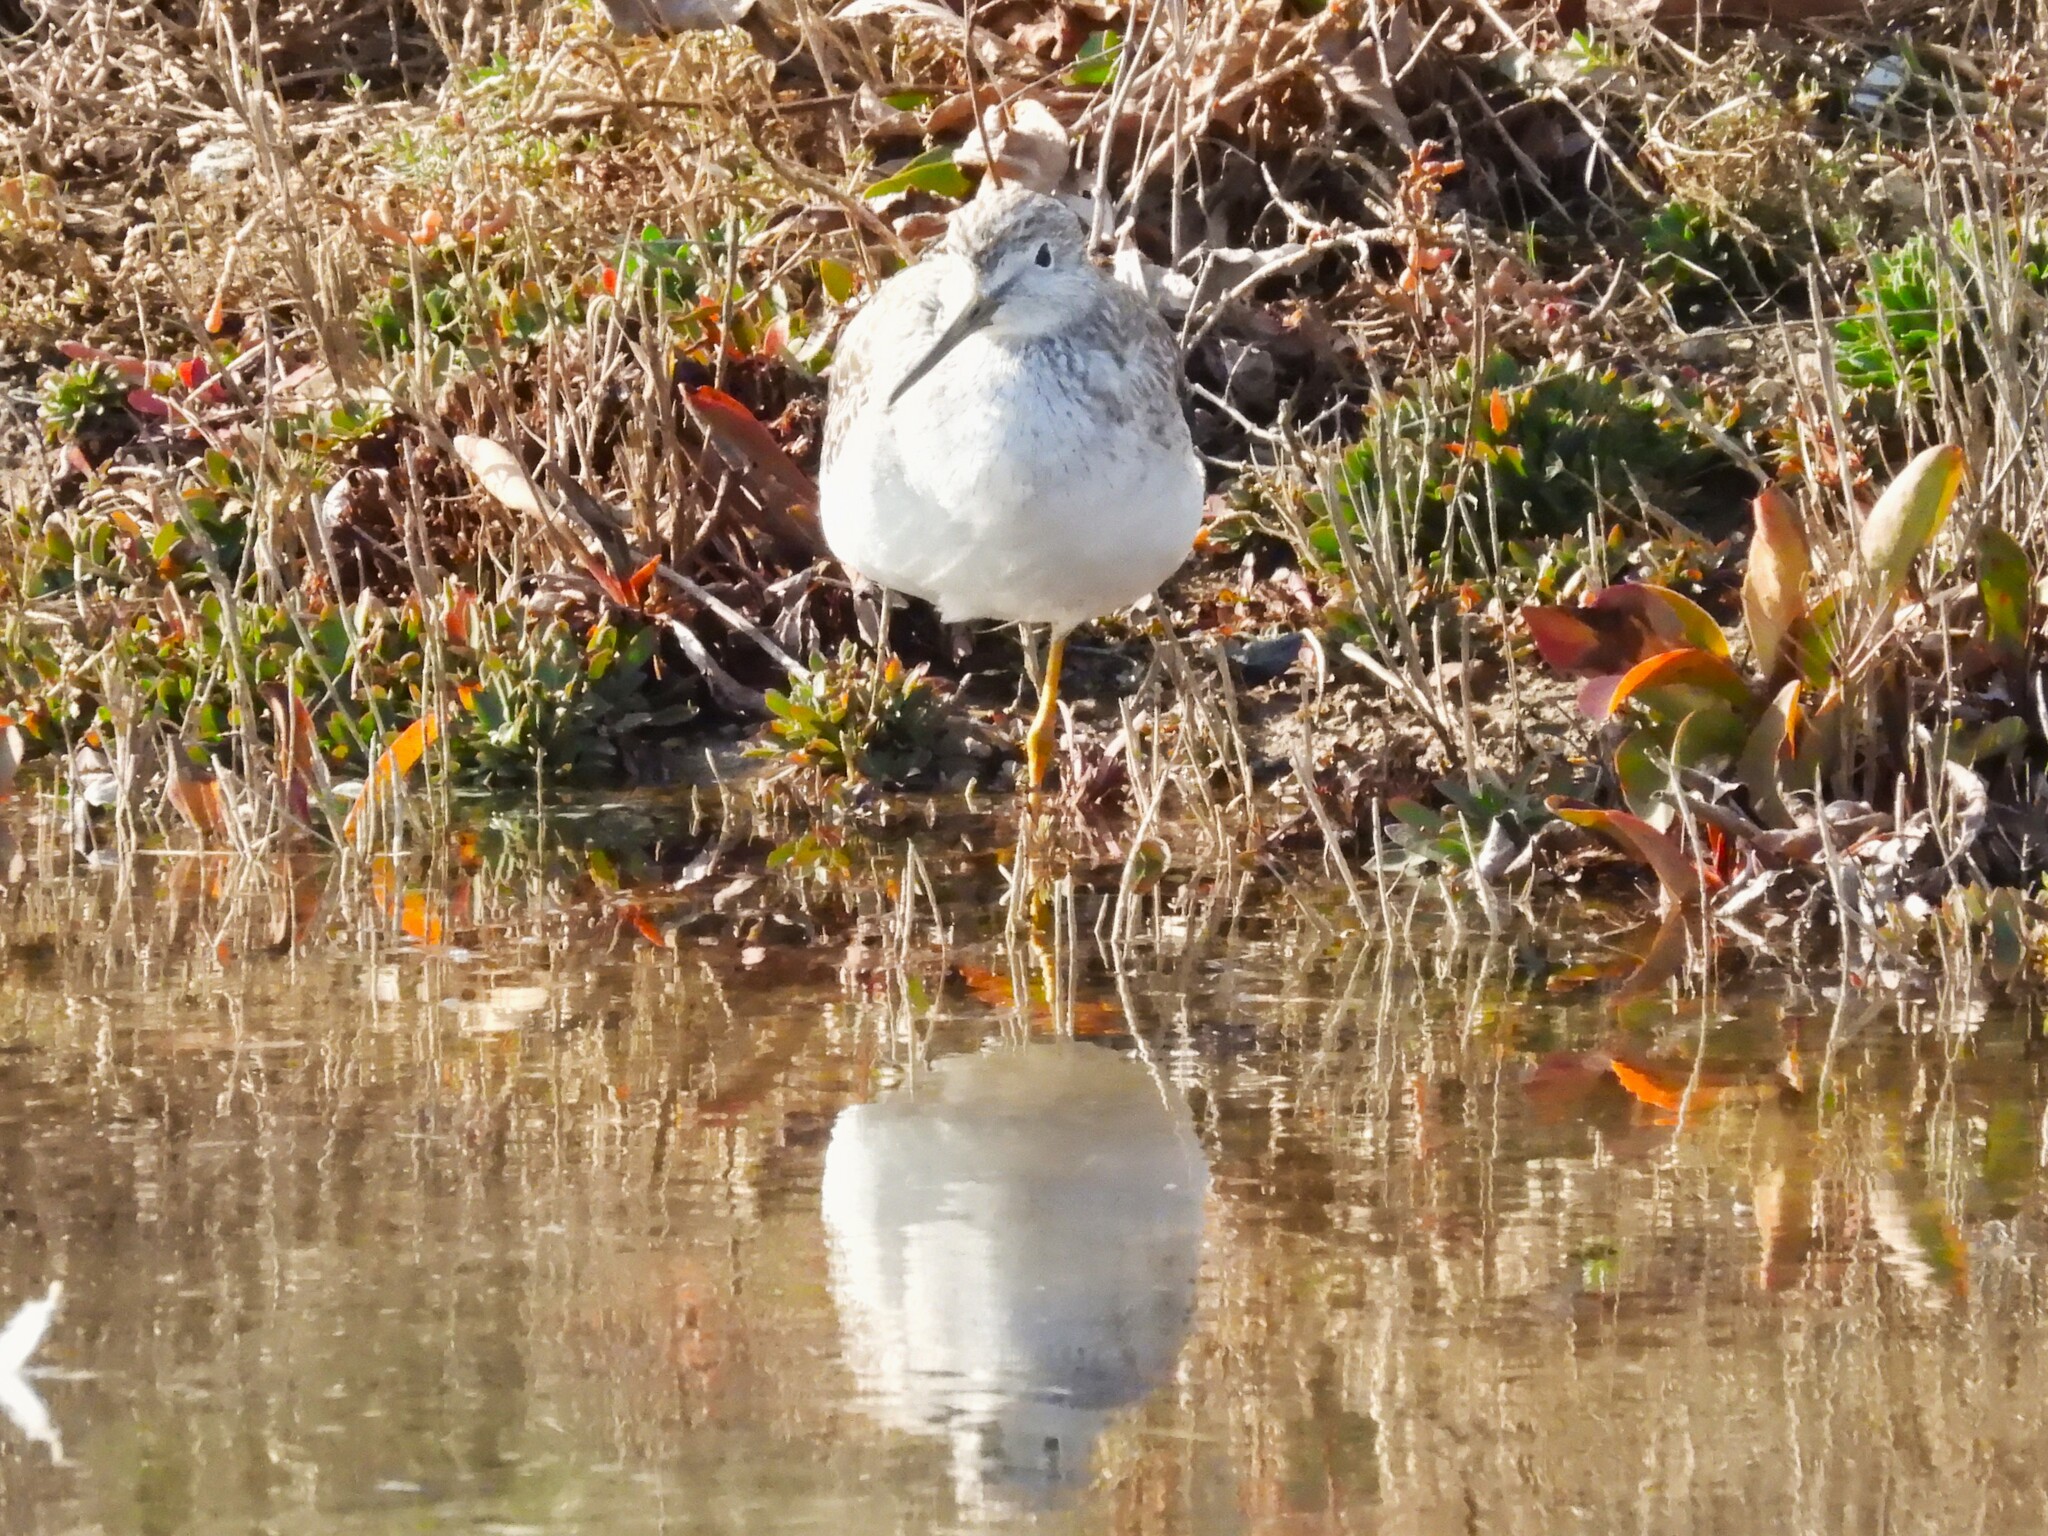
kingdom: Animalia
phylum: Chordata
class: Aves
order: Charadriiformes
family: Scolopacidae
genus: Tringa
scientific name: Tringa melanoleuca
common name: Greater yellowlegs
